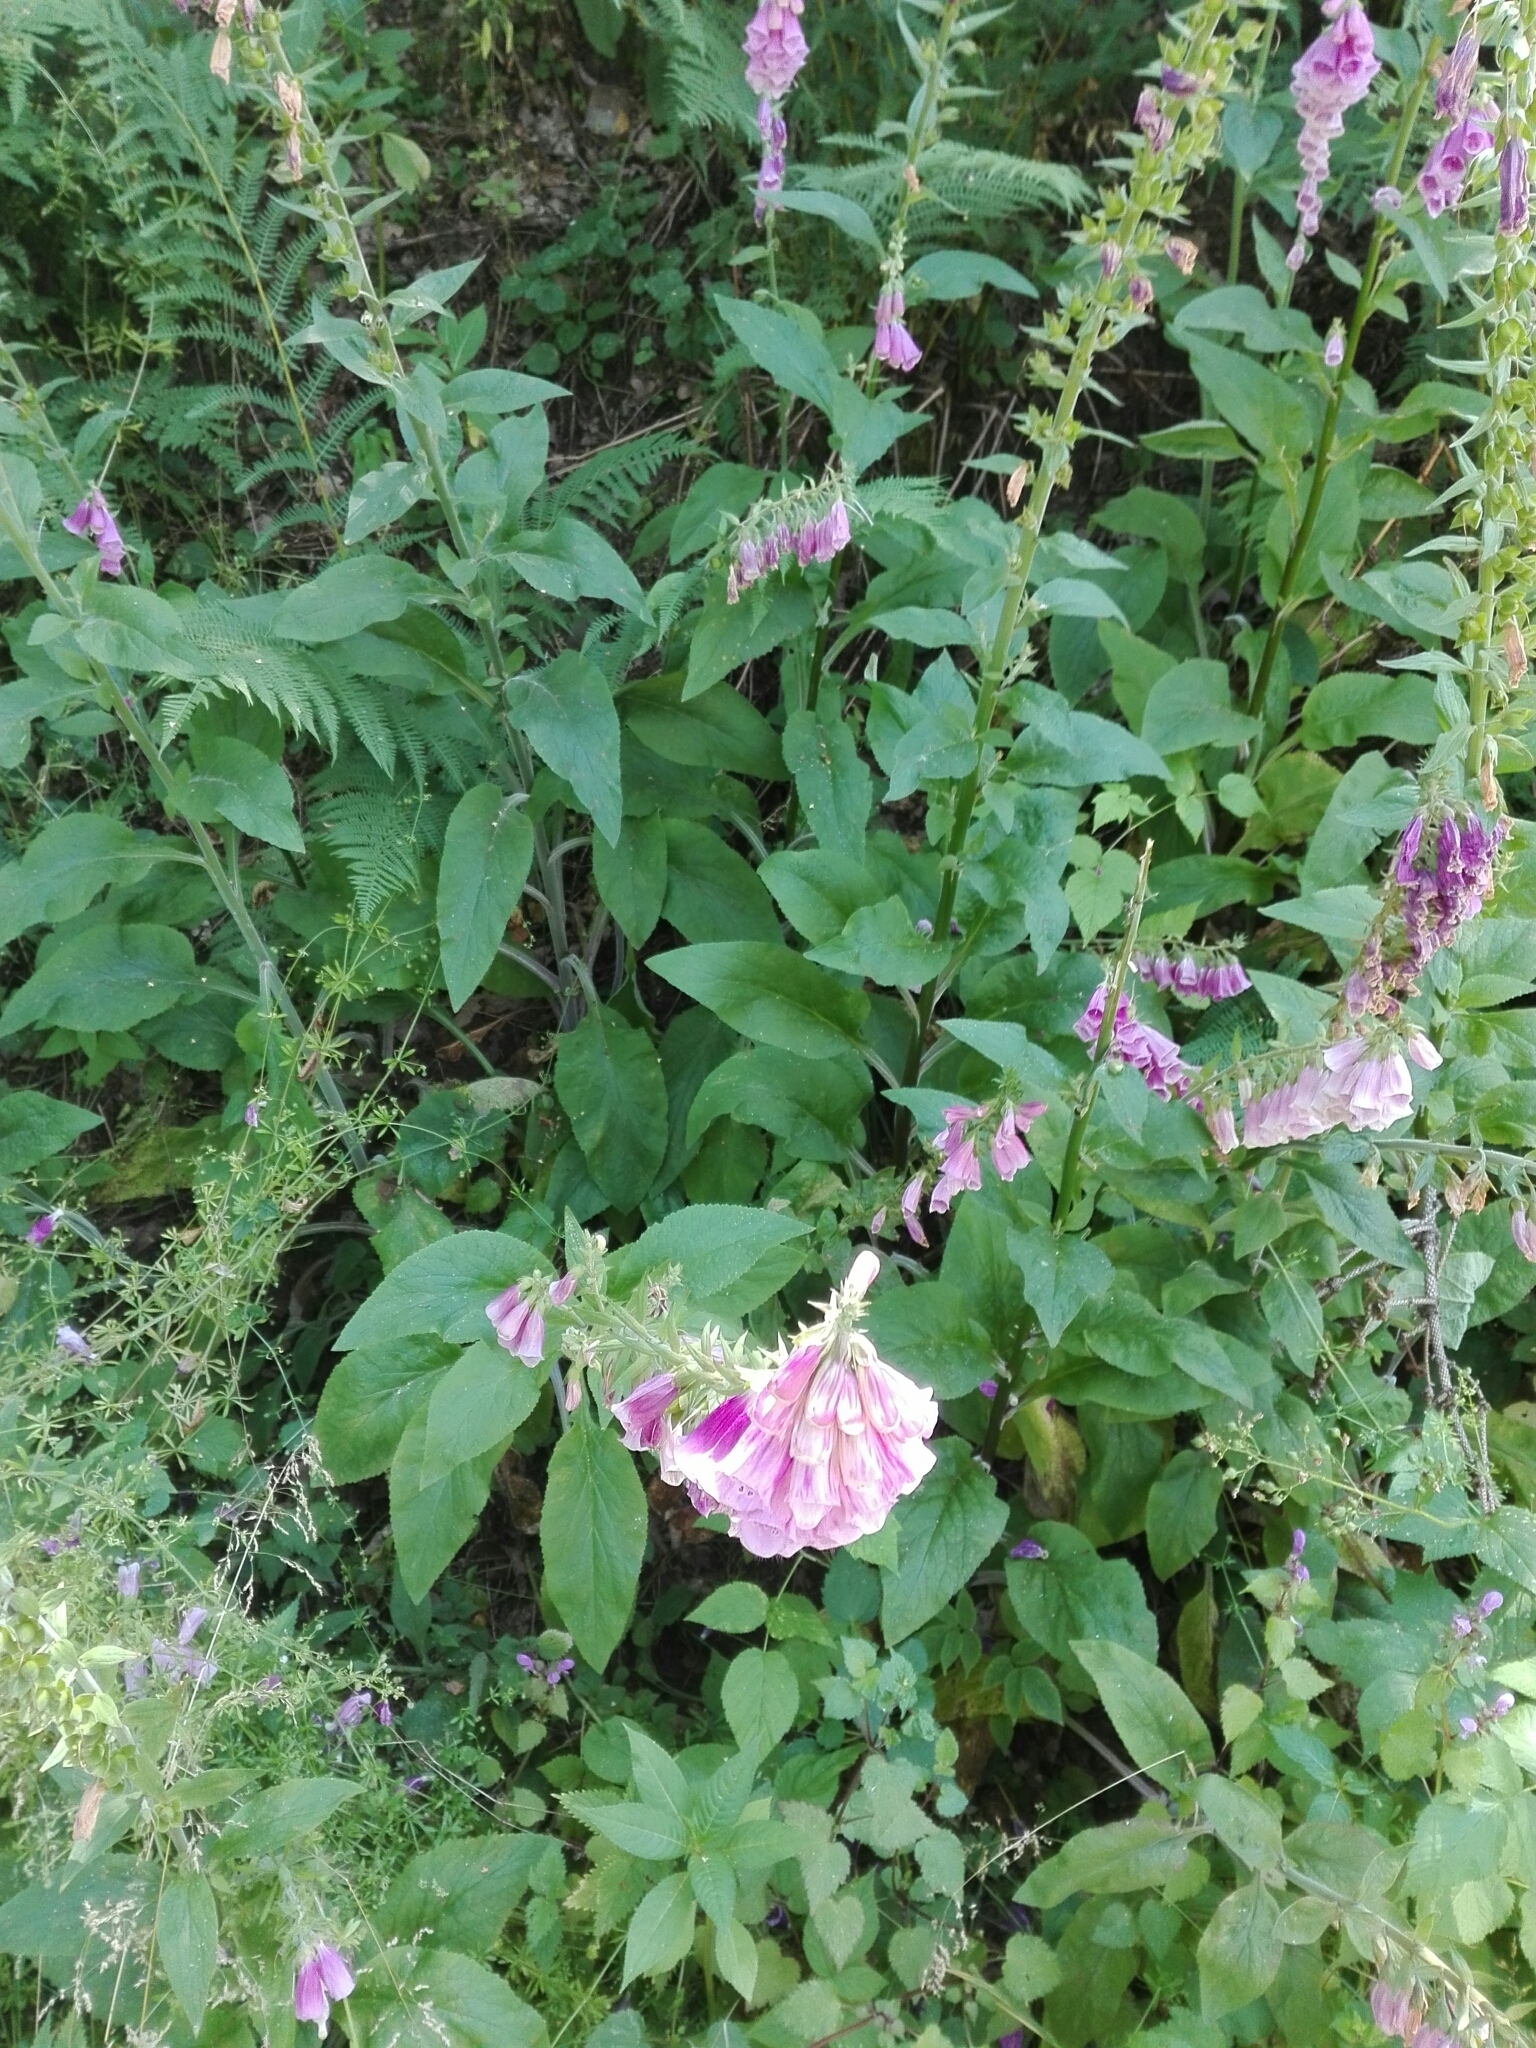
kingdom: Plantae
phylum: Tracheophyta
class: Magnoliopsida
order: Lamiales
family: Plantaginaceae
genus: Digitalis
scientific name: Digitalis purpurea
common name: Foxglove
